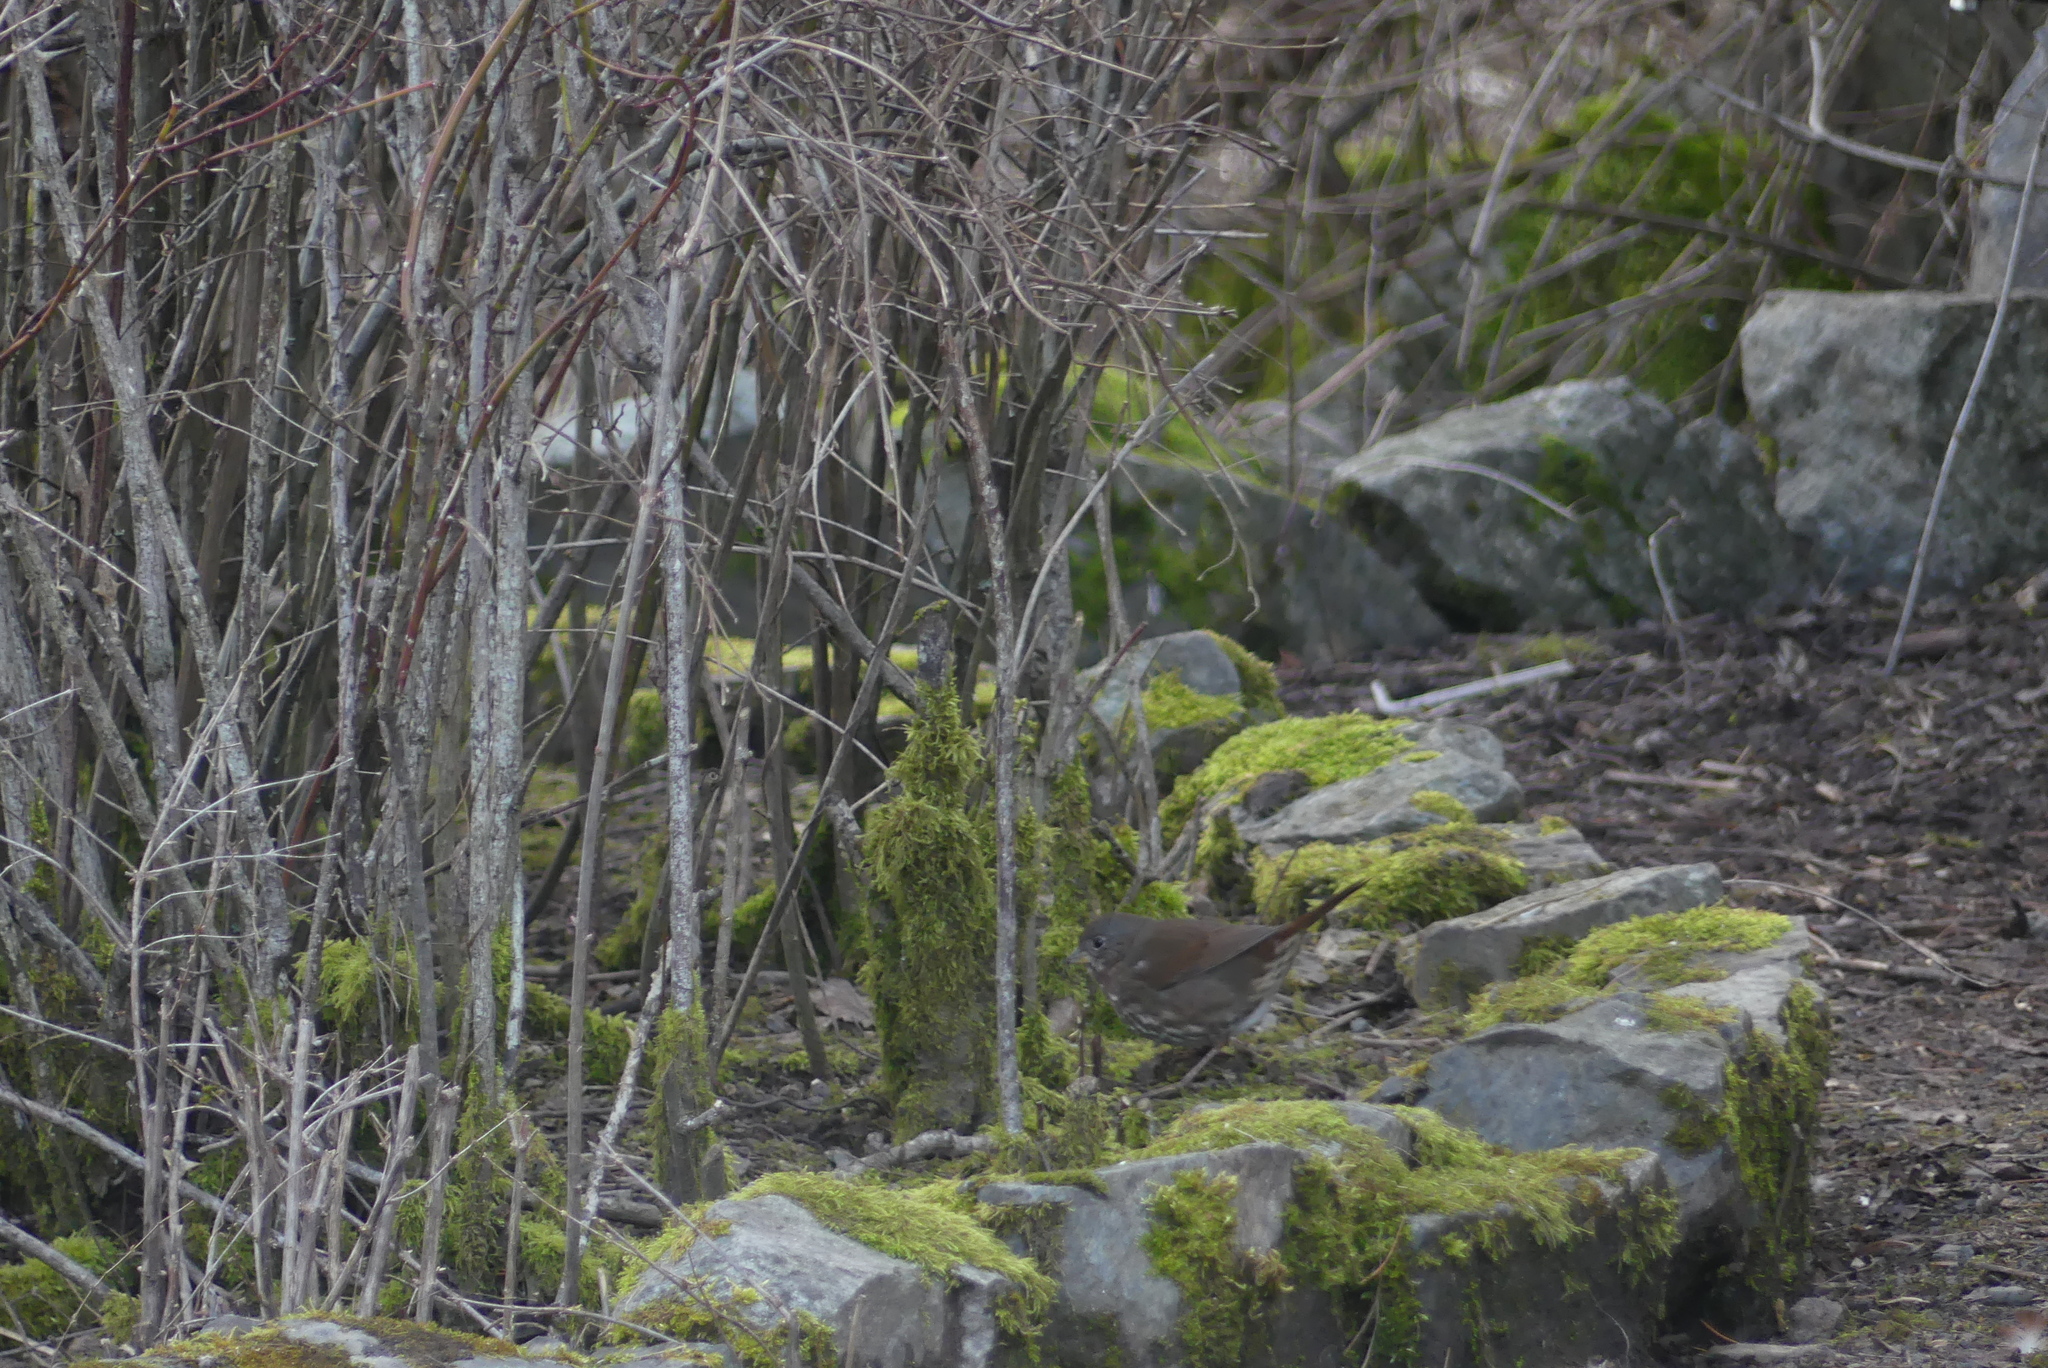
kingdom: Animalia
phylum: Chordata
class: Aves
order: Passeriformes
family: Passerellidae
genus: Passerella
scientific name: Passerella iliaca
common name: Fox sparrow
